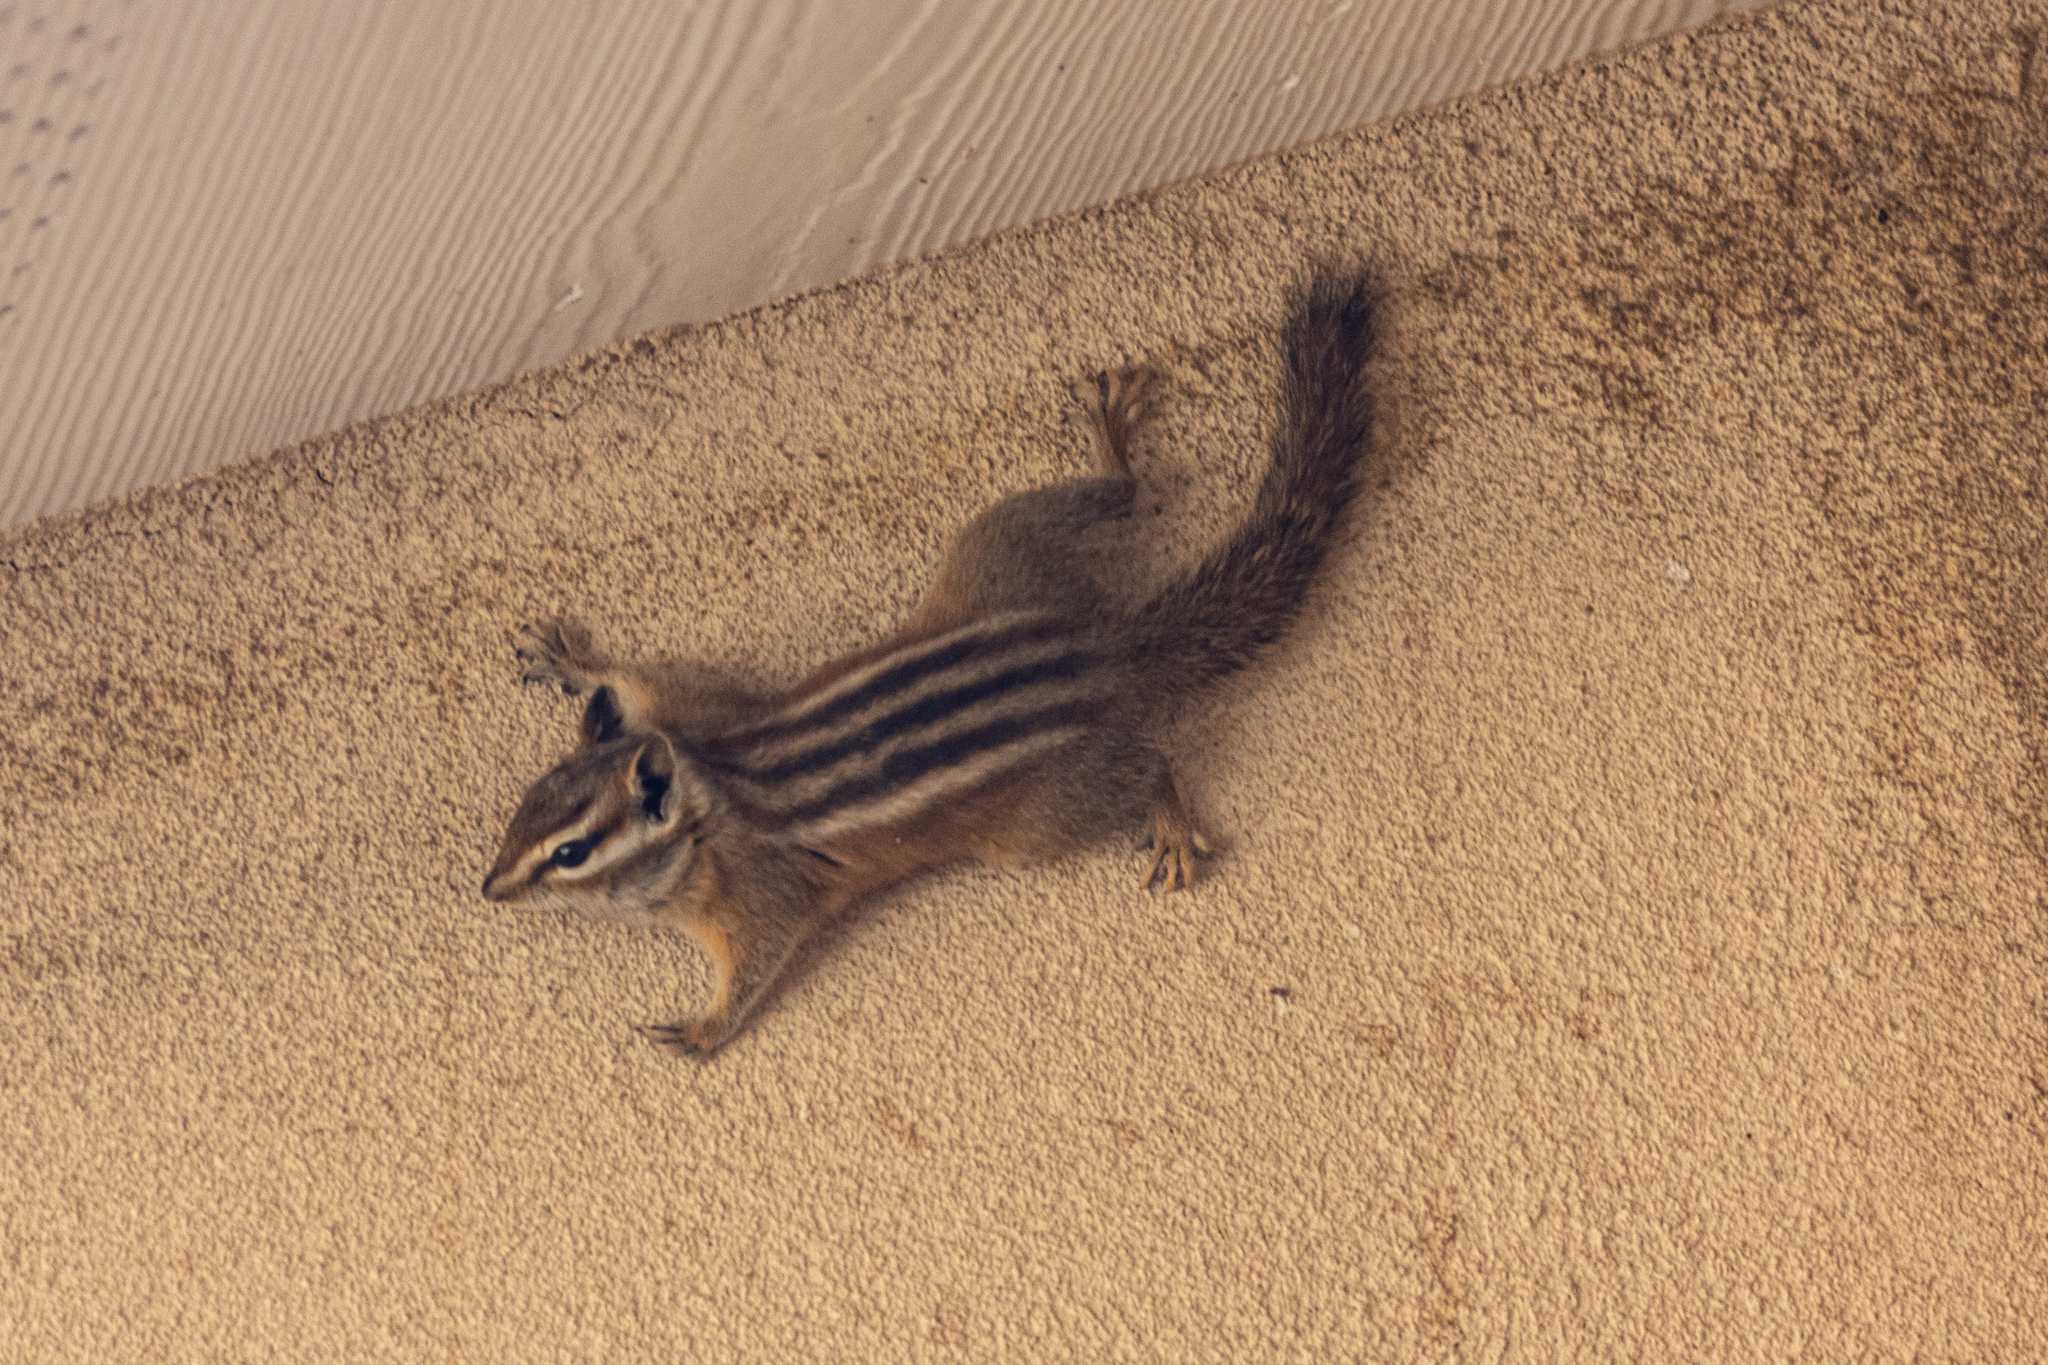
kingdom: Animalia
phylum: Chordata
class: Mammalia
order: Rodentia
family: Sciuridae
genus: Tamias
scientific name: Tamias minimus
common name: Least chipmunk
